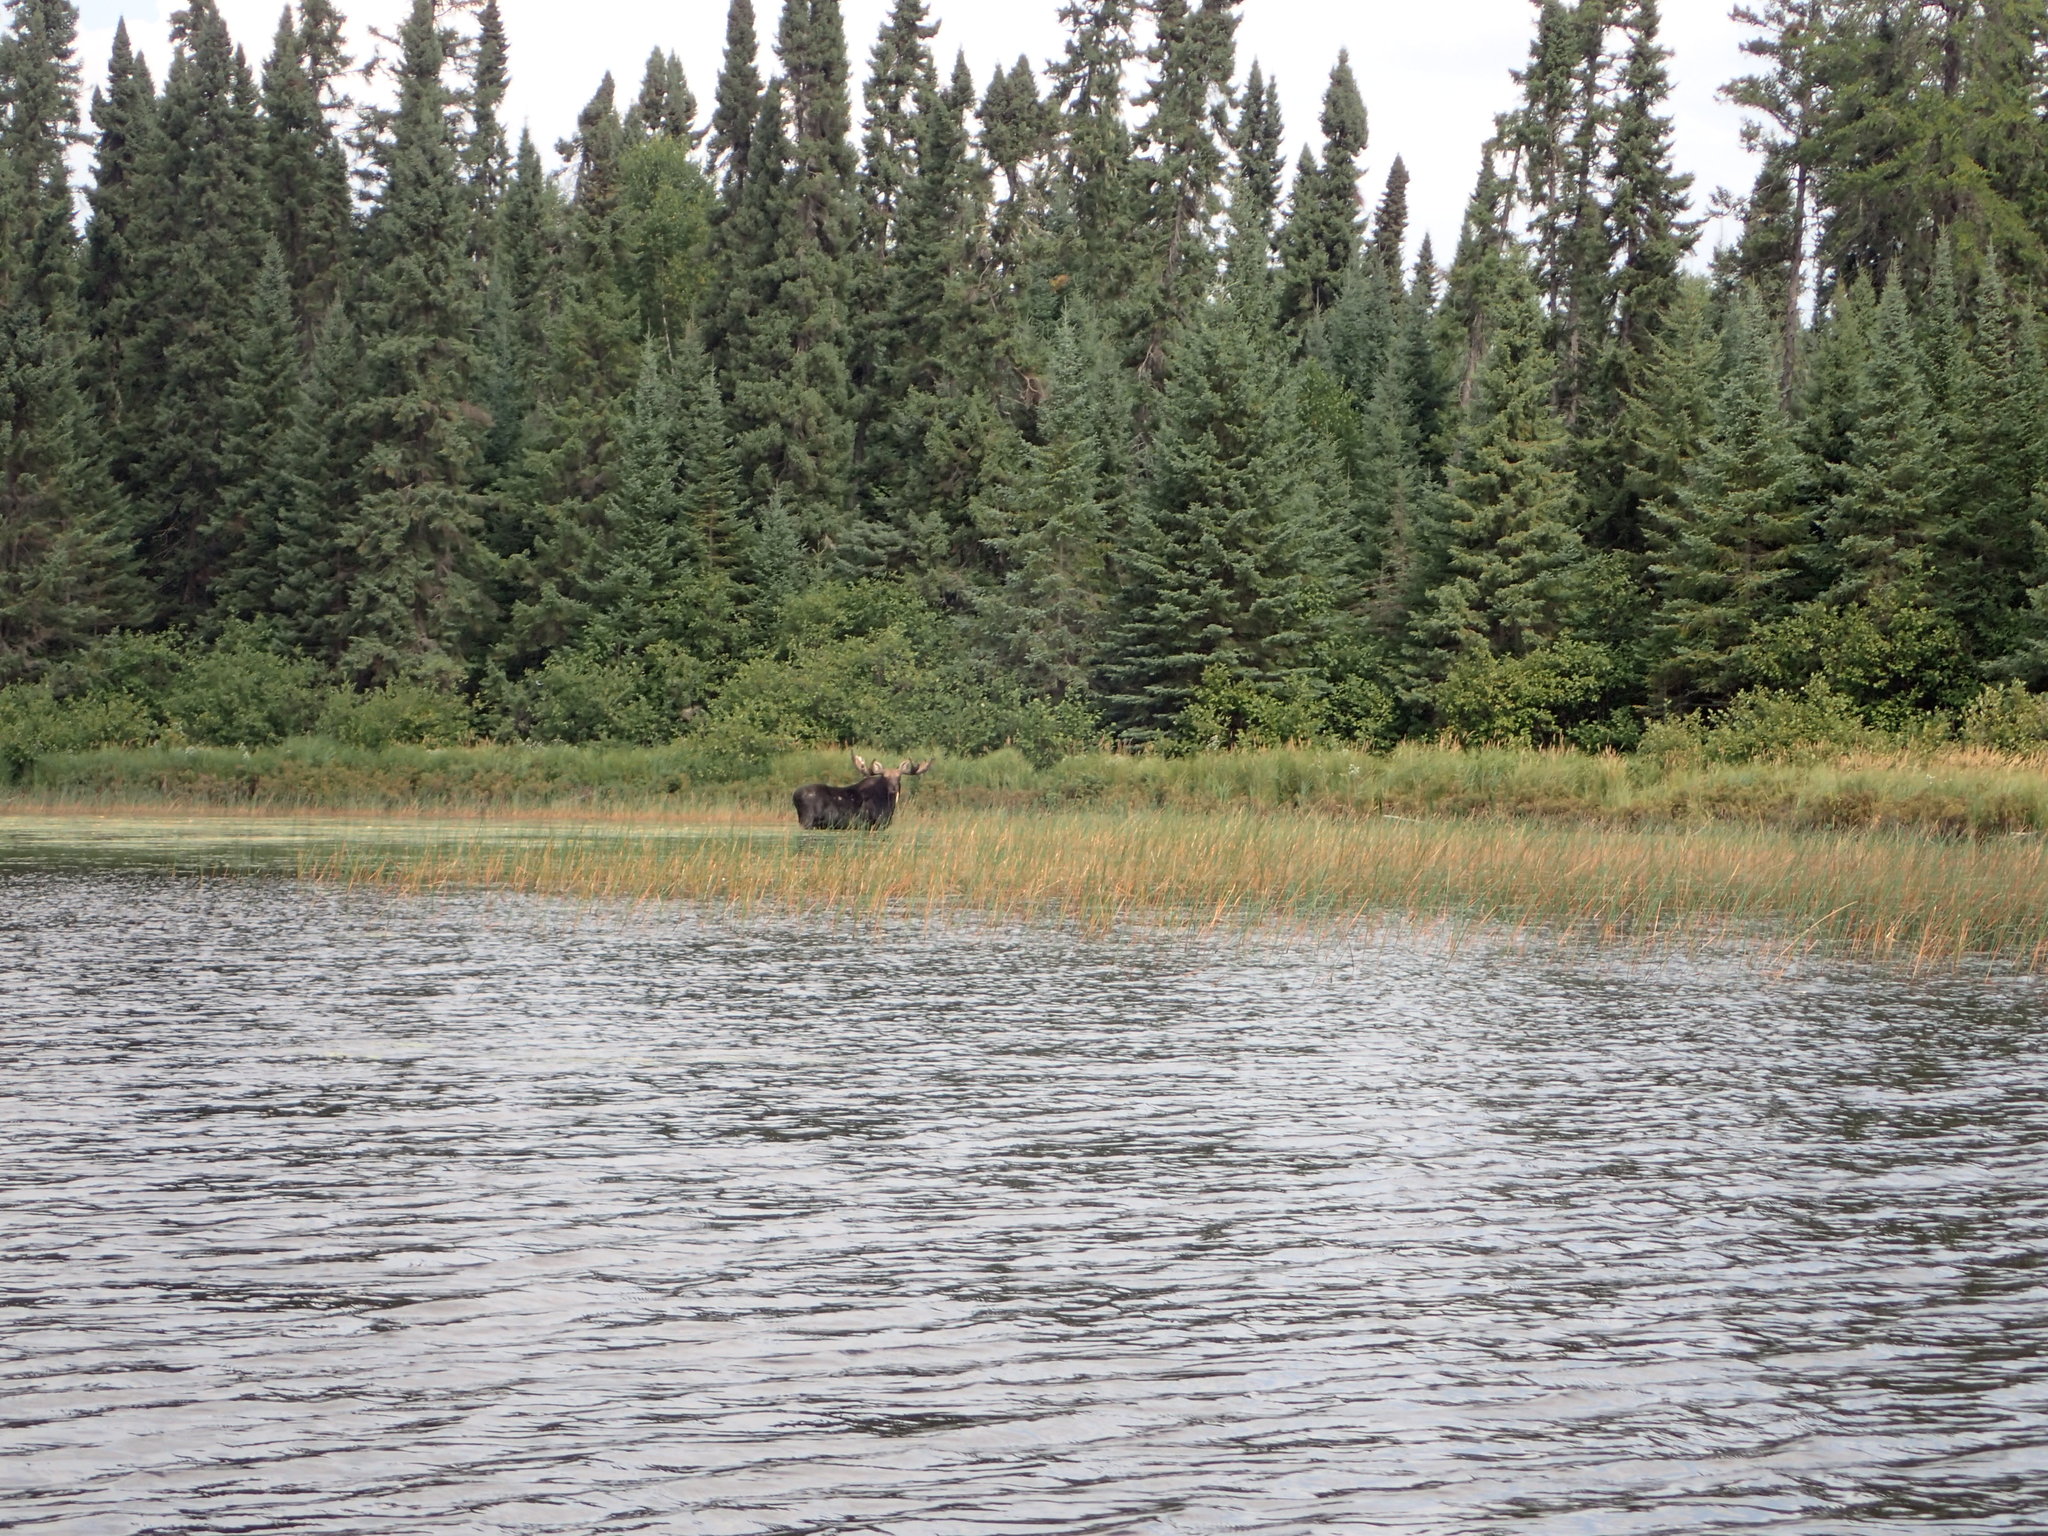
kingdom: Animalia
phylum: Chordata
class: Mammalia
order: Artiodactyla
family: Cervidae
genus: Alces
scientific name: Alces alces
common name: Moose
